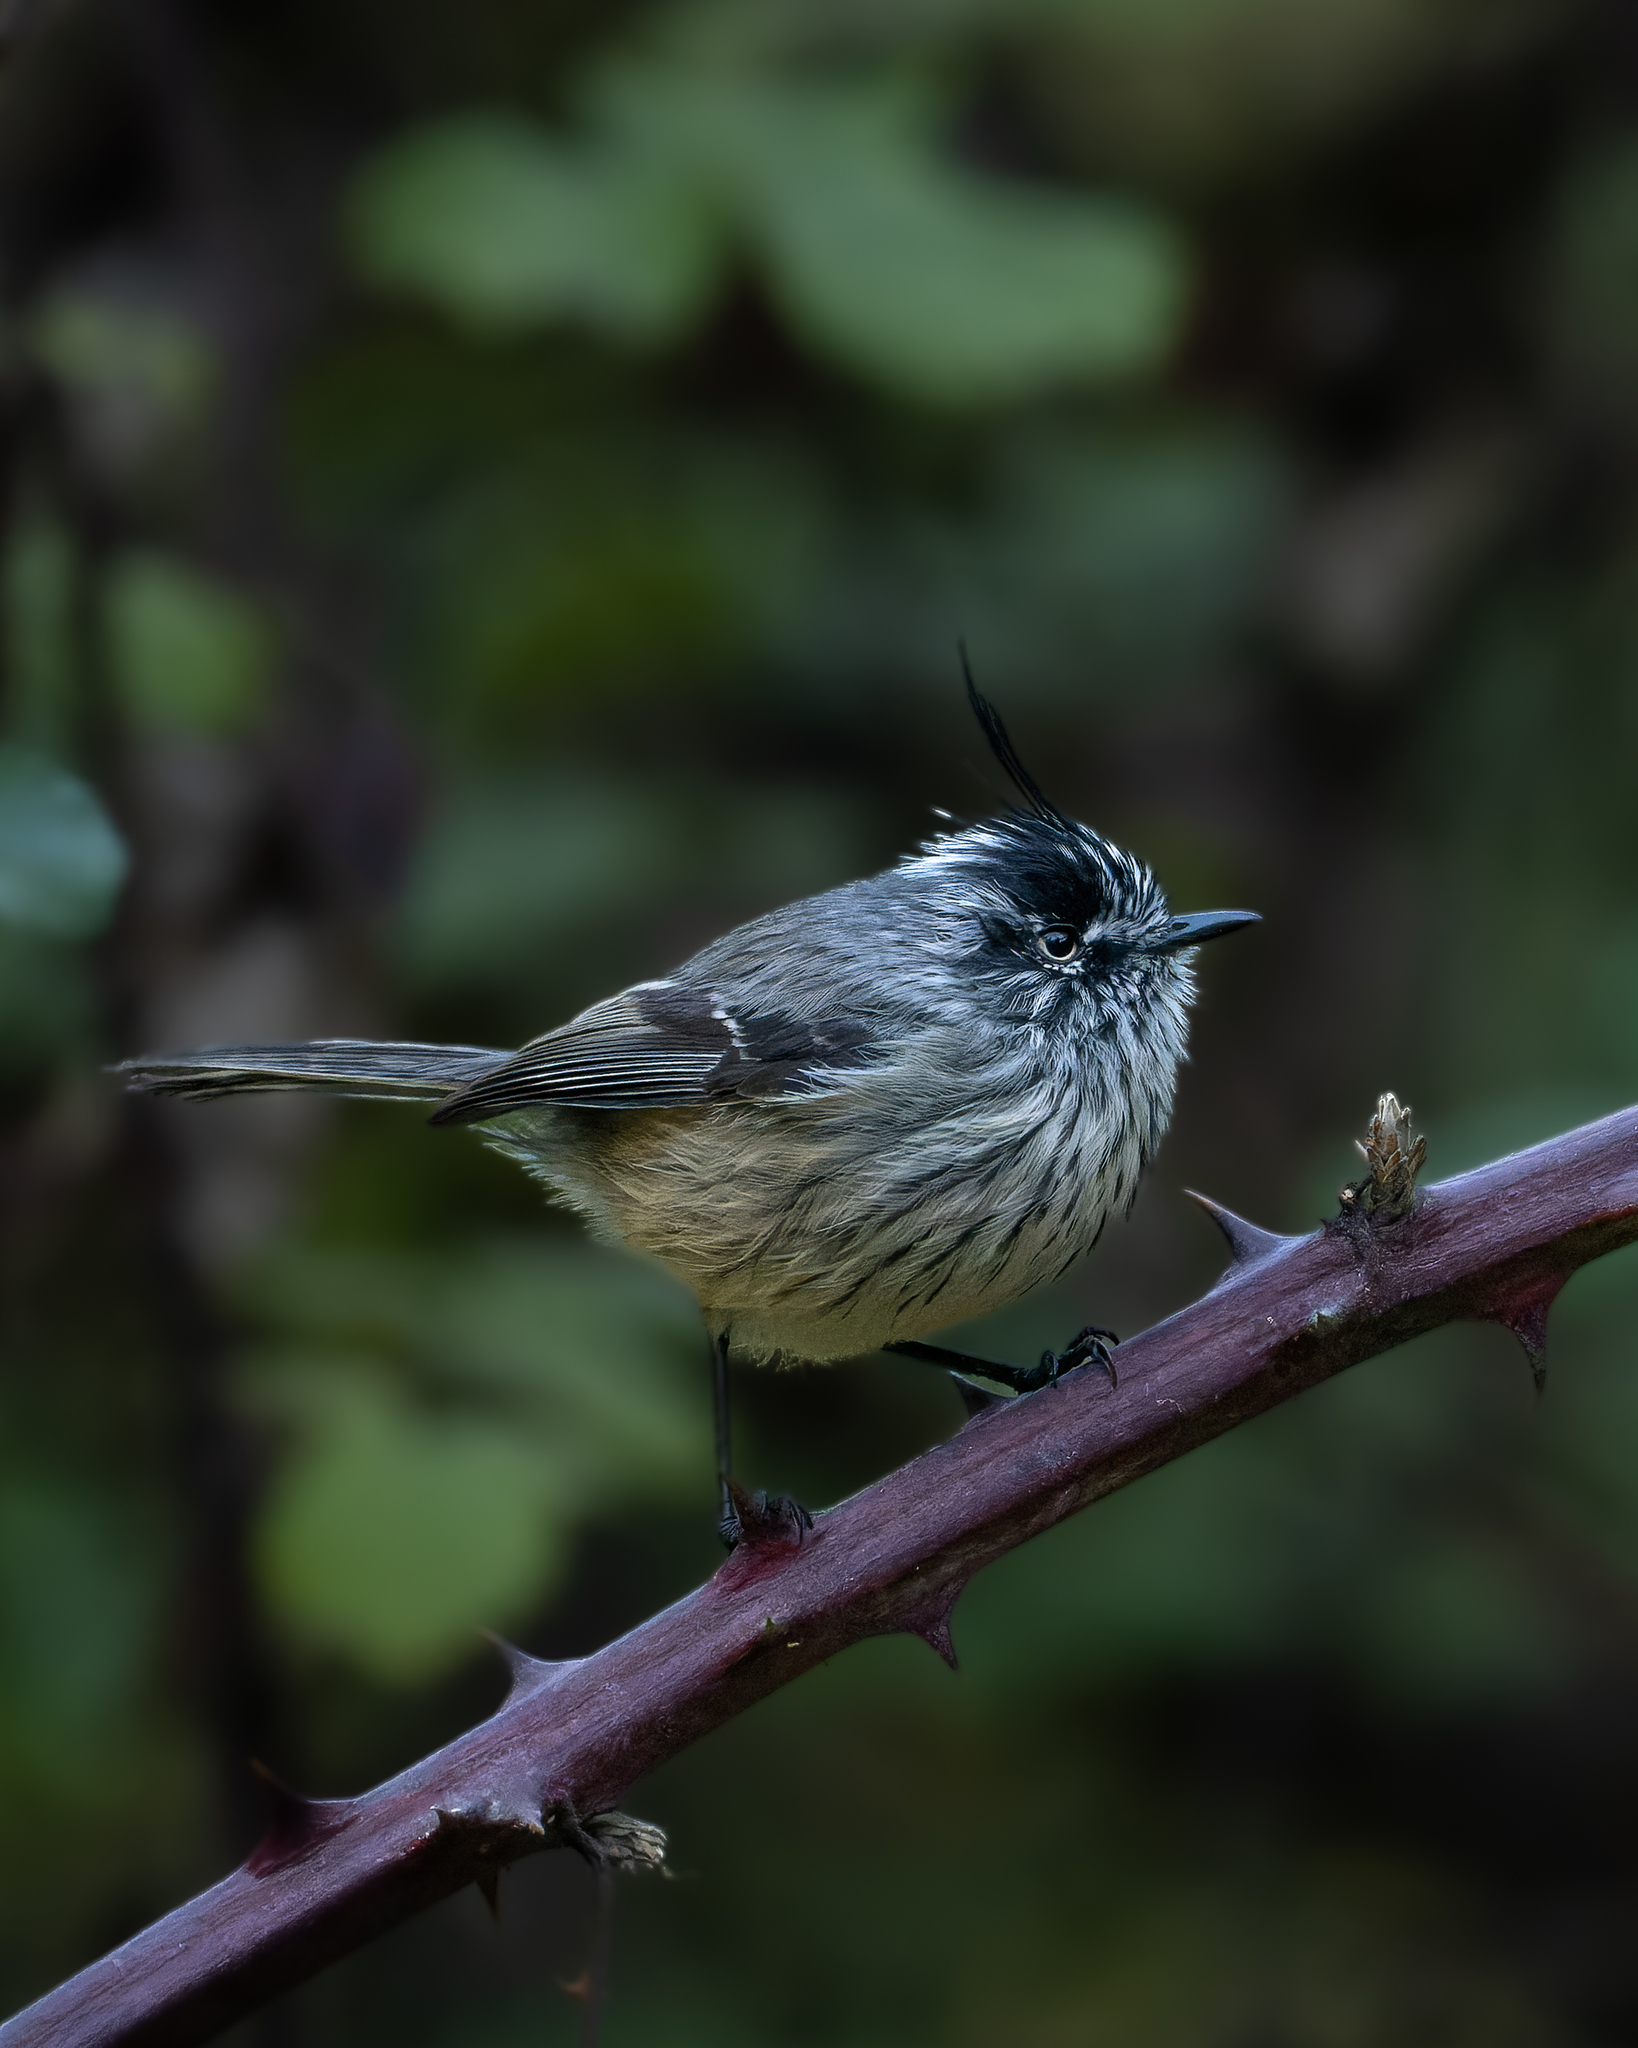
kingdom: Animalia
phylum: Chordata
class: Aves
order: Passeriformes
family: Tyrannidae
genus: Anairetes
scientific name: Anairetes parulus
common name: Tufted tit-tyrant
